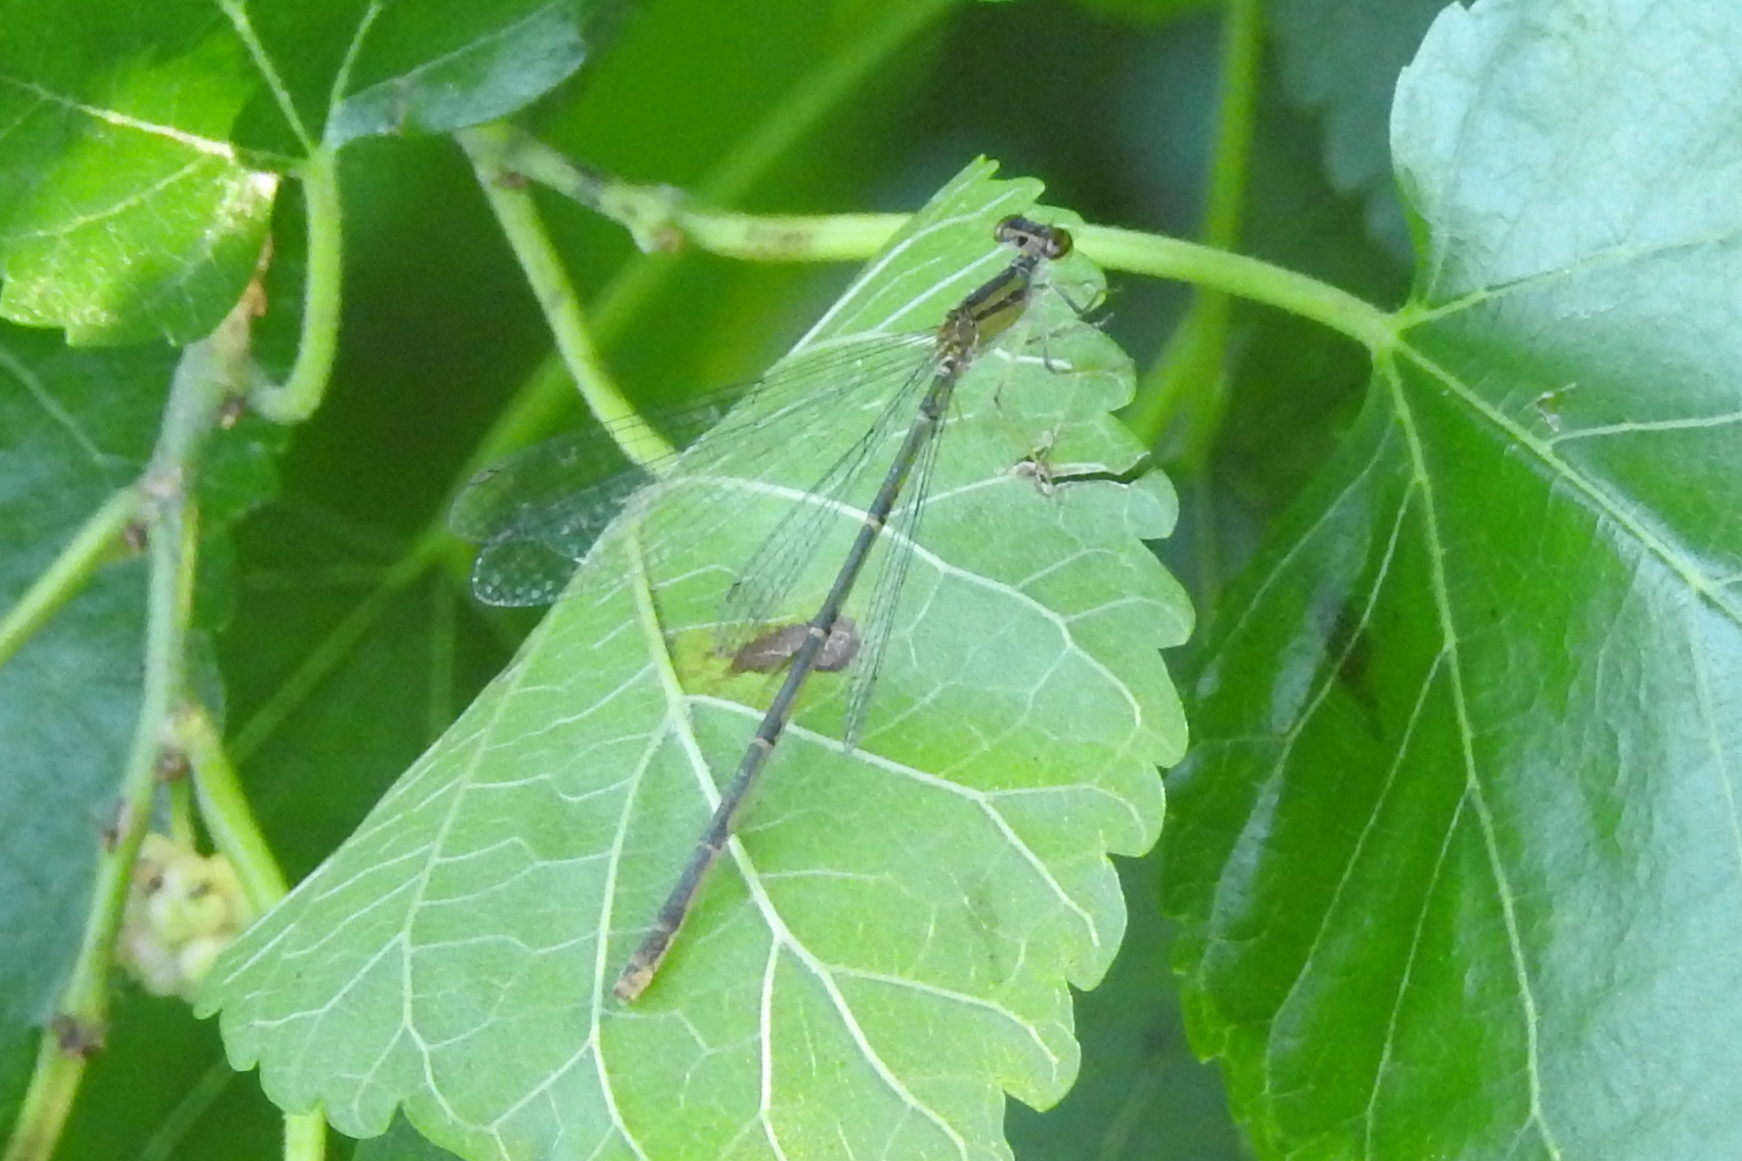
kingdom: Animalia
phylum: Arthropoda
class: Insecta
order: Odonata
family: Coenagrionidae
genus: Enallagma
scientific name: Enallagma signatum
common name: Orange bluet
